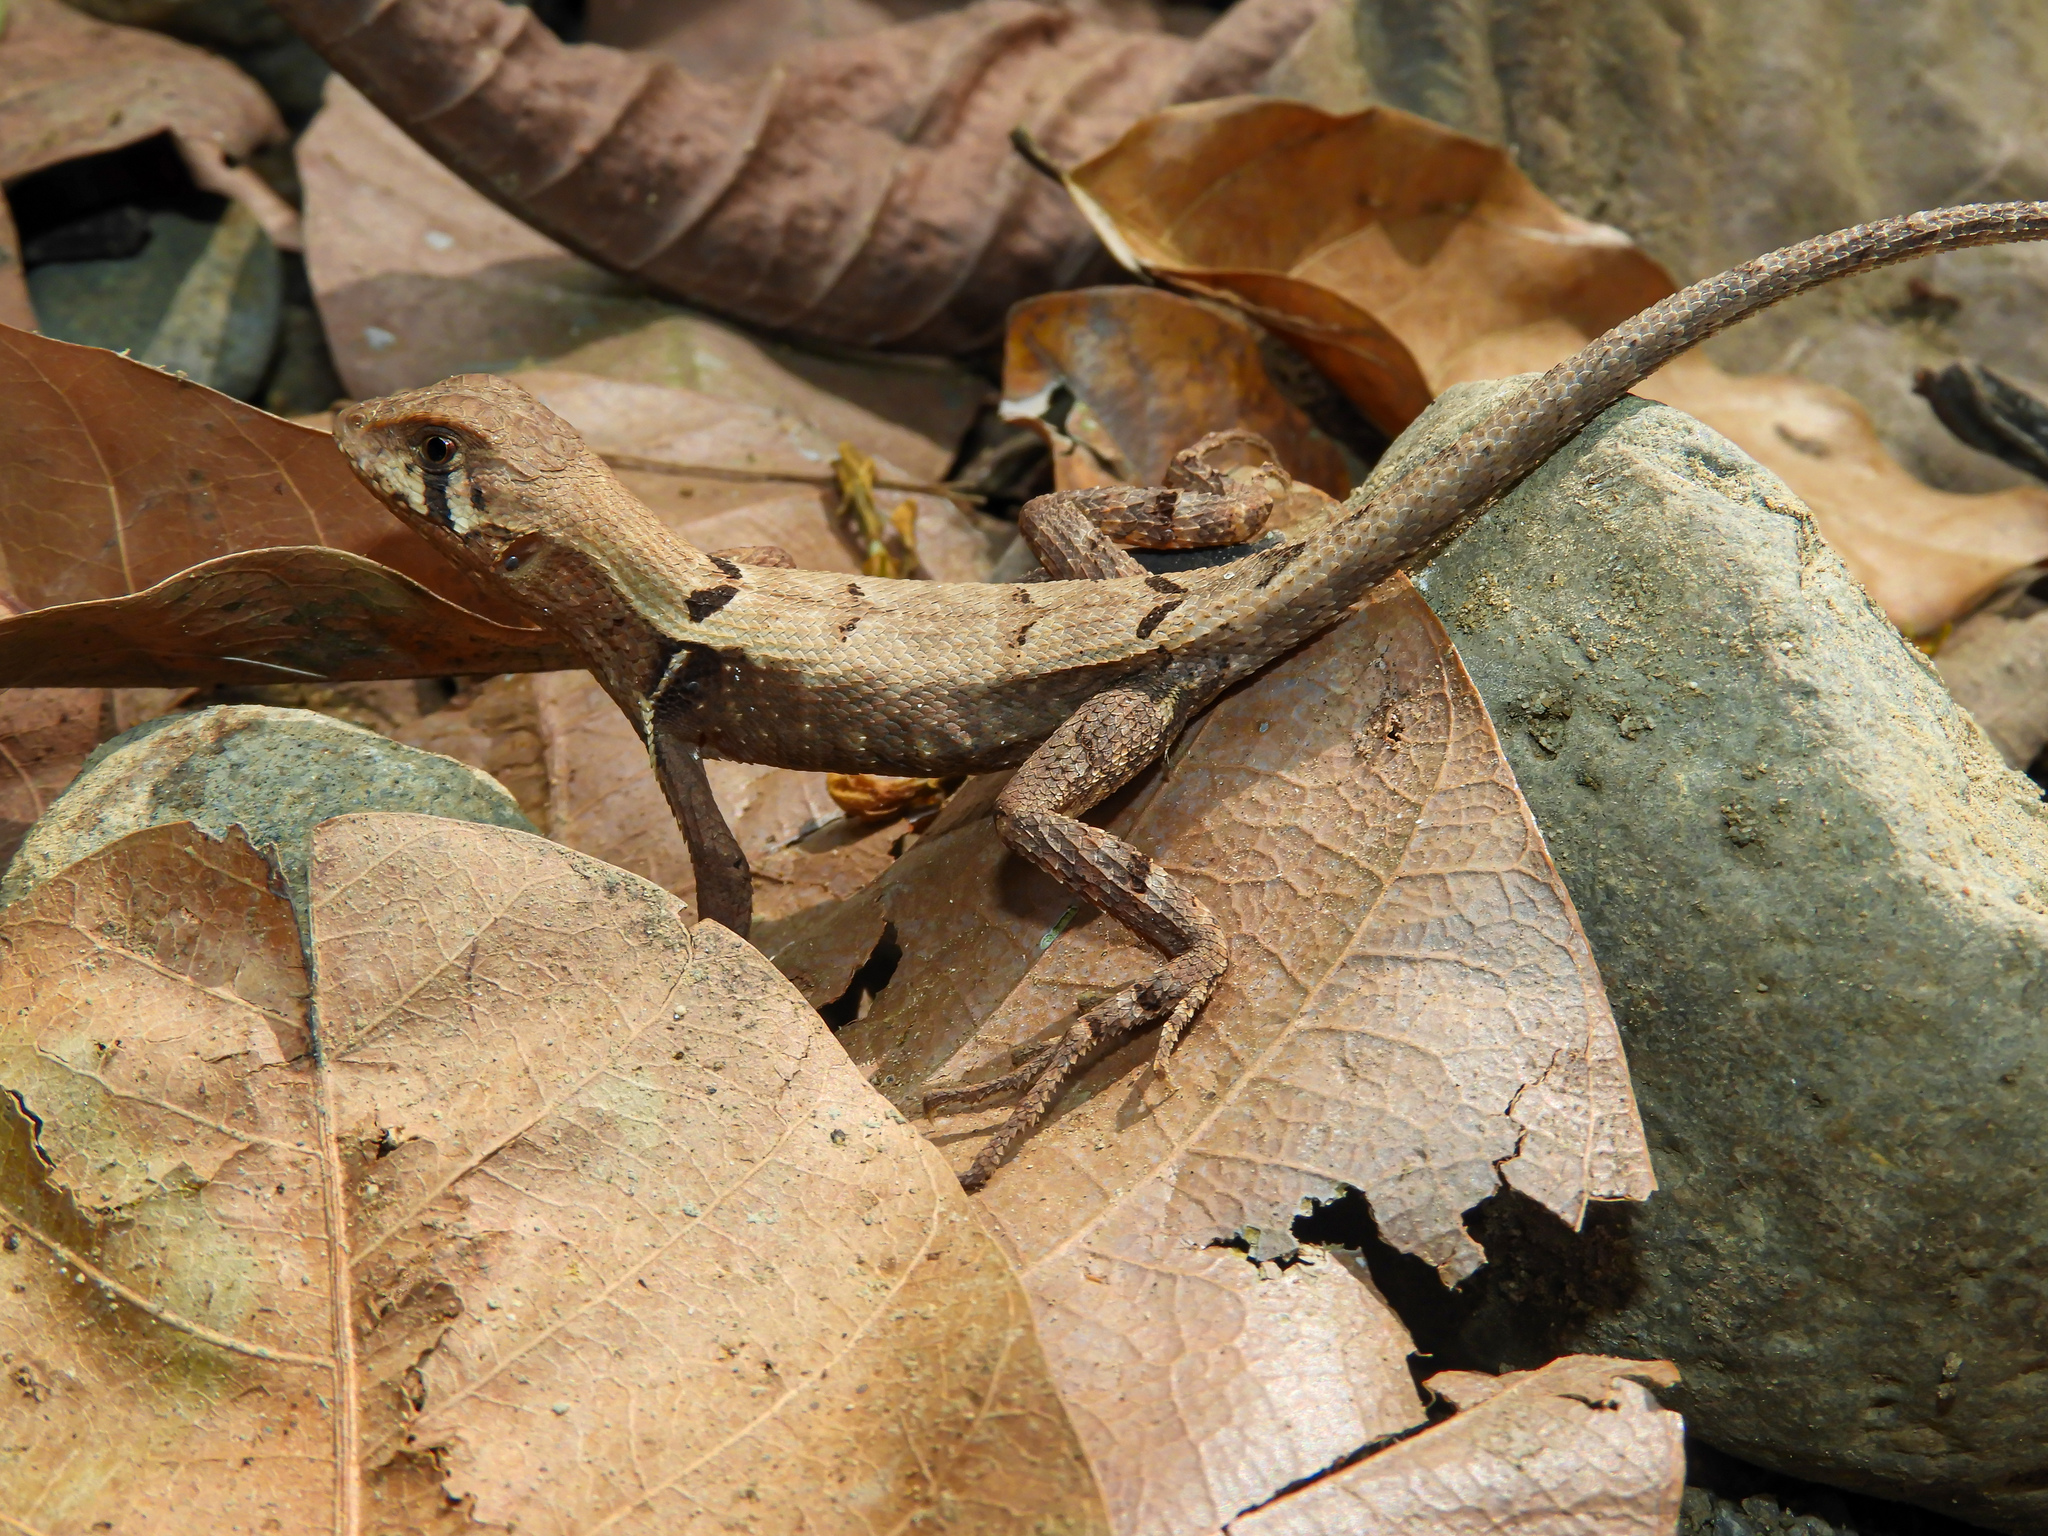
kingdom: Animalia
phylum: Chordata
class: Squamata
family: Tropiduridae
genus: Stenocercus
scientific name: Stenocercus erythrogaster
